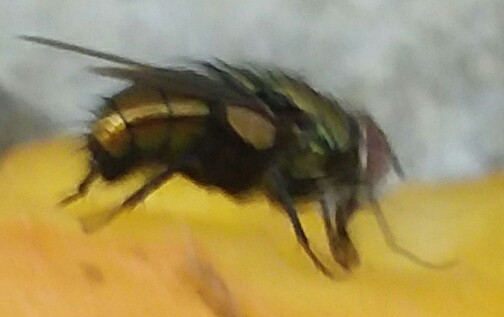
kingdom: Animalia
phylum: Arthropoda
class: Insecta
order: Diptera
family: Calliphoridae
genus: Lucilia
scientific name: Lucilia cuprina
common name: Sheep blow fly
